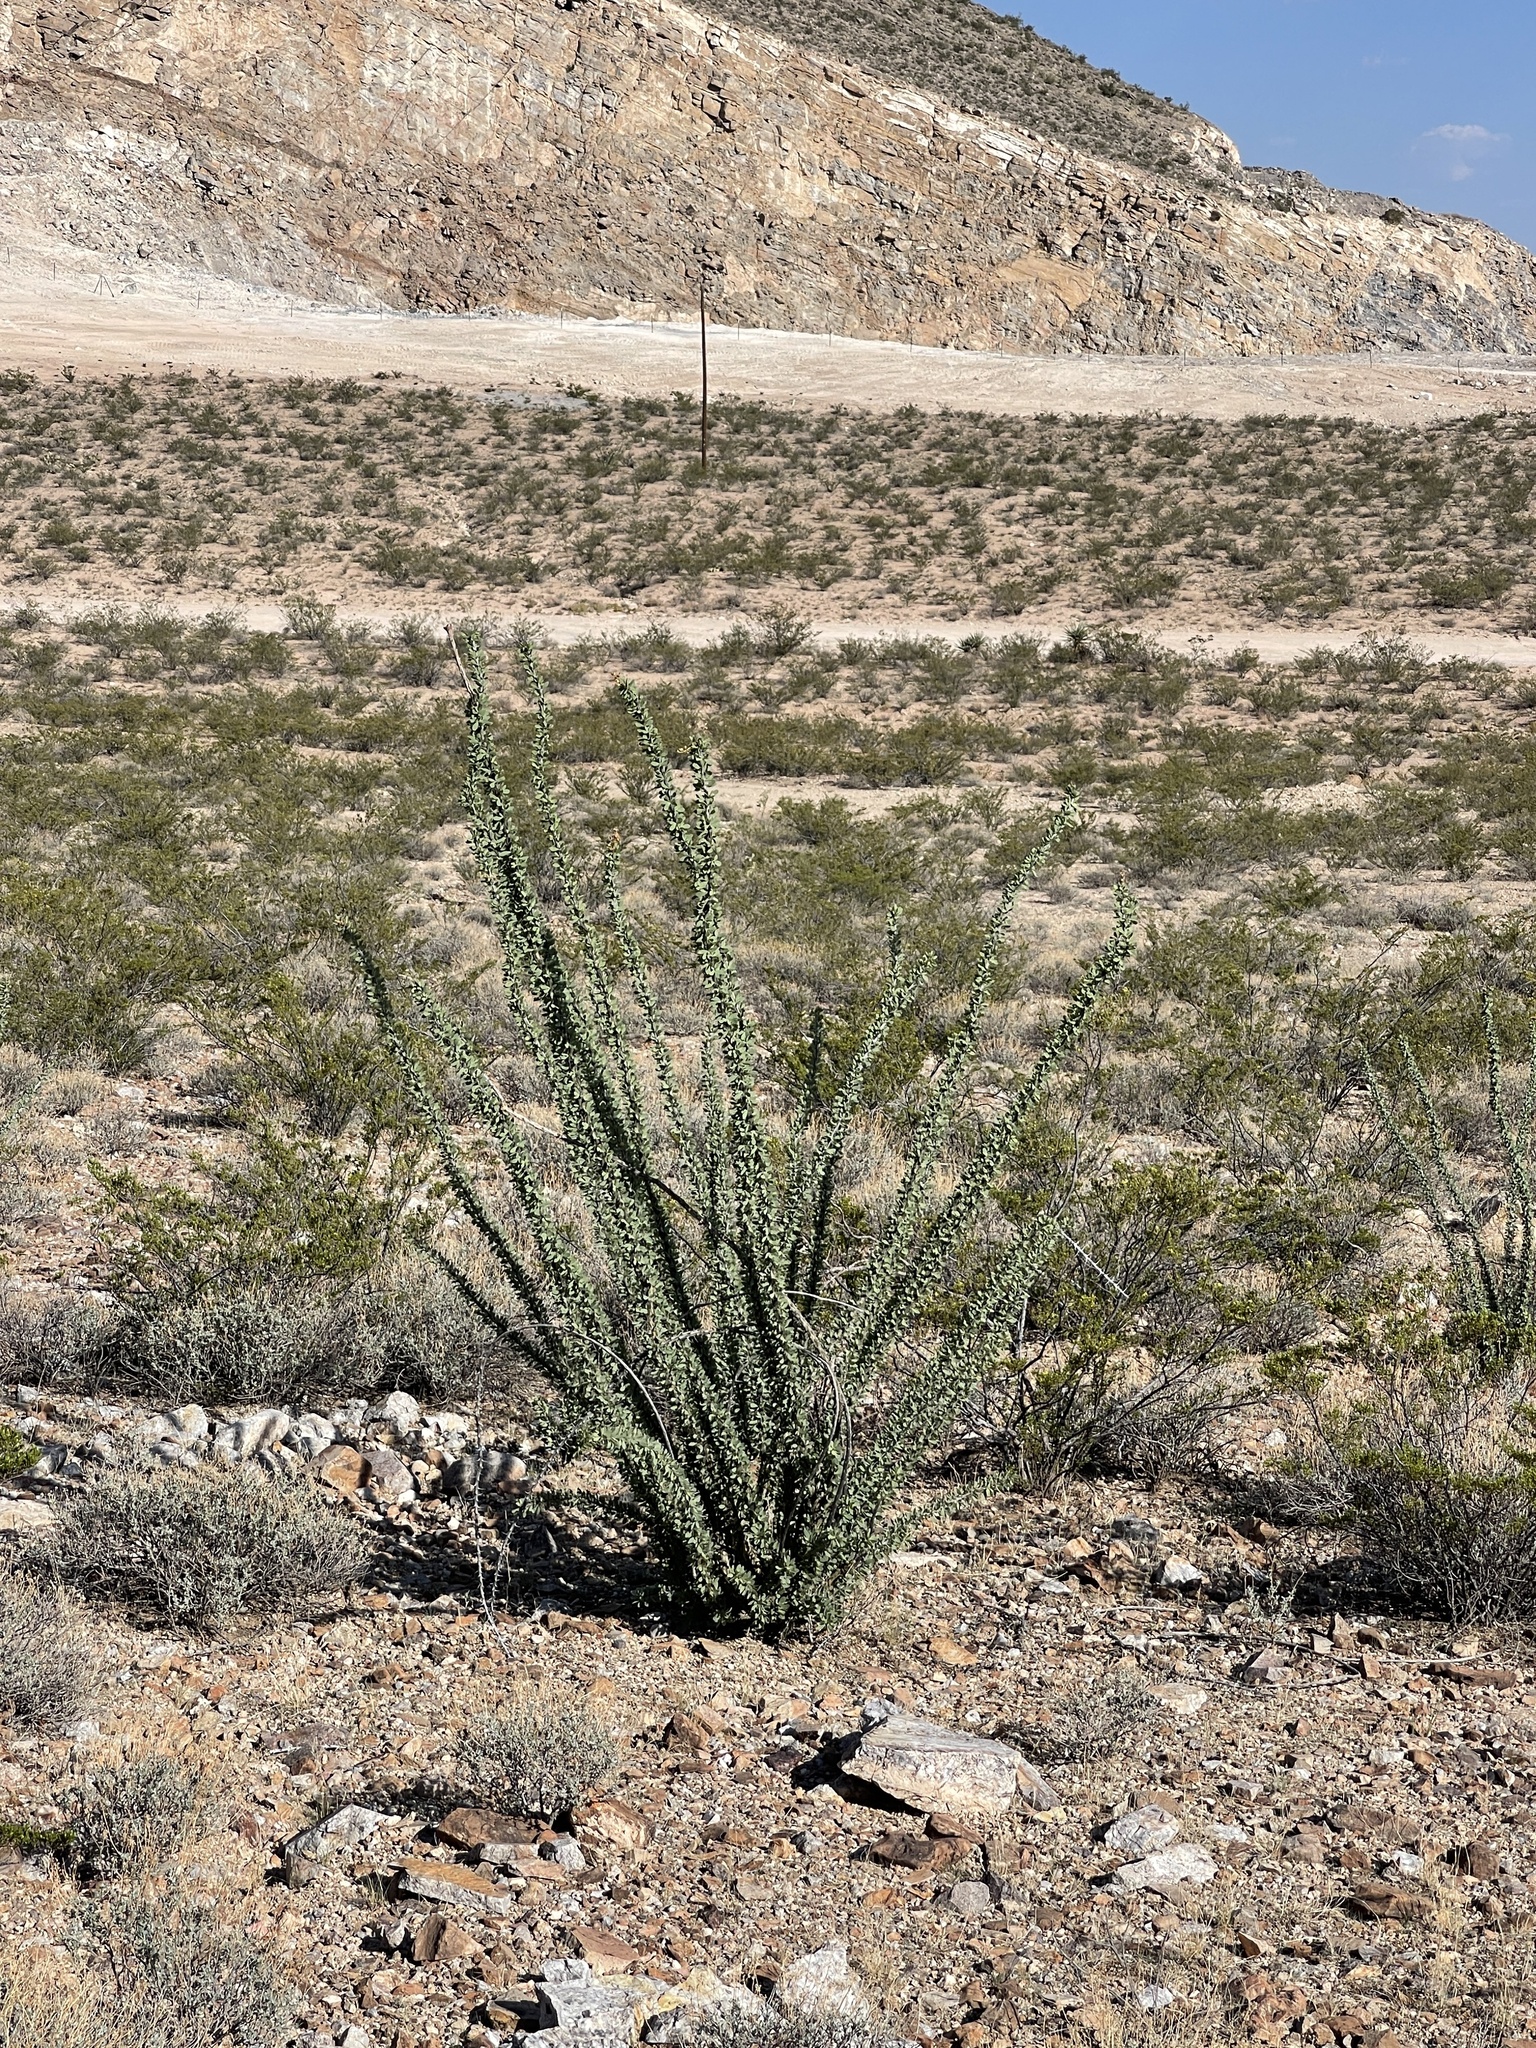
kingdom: Plantae
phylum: Tracheophyta
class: Magnoliopsida
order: Ericales
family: Fouquieriaceae
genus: Fouquieria
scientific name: Fouquieria splendens
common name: Vine-cactus
